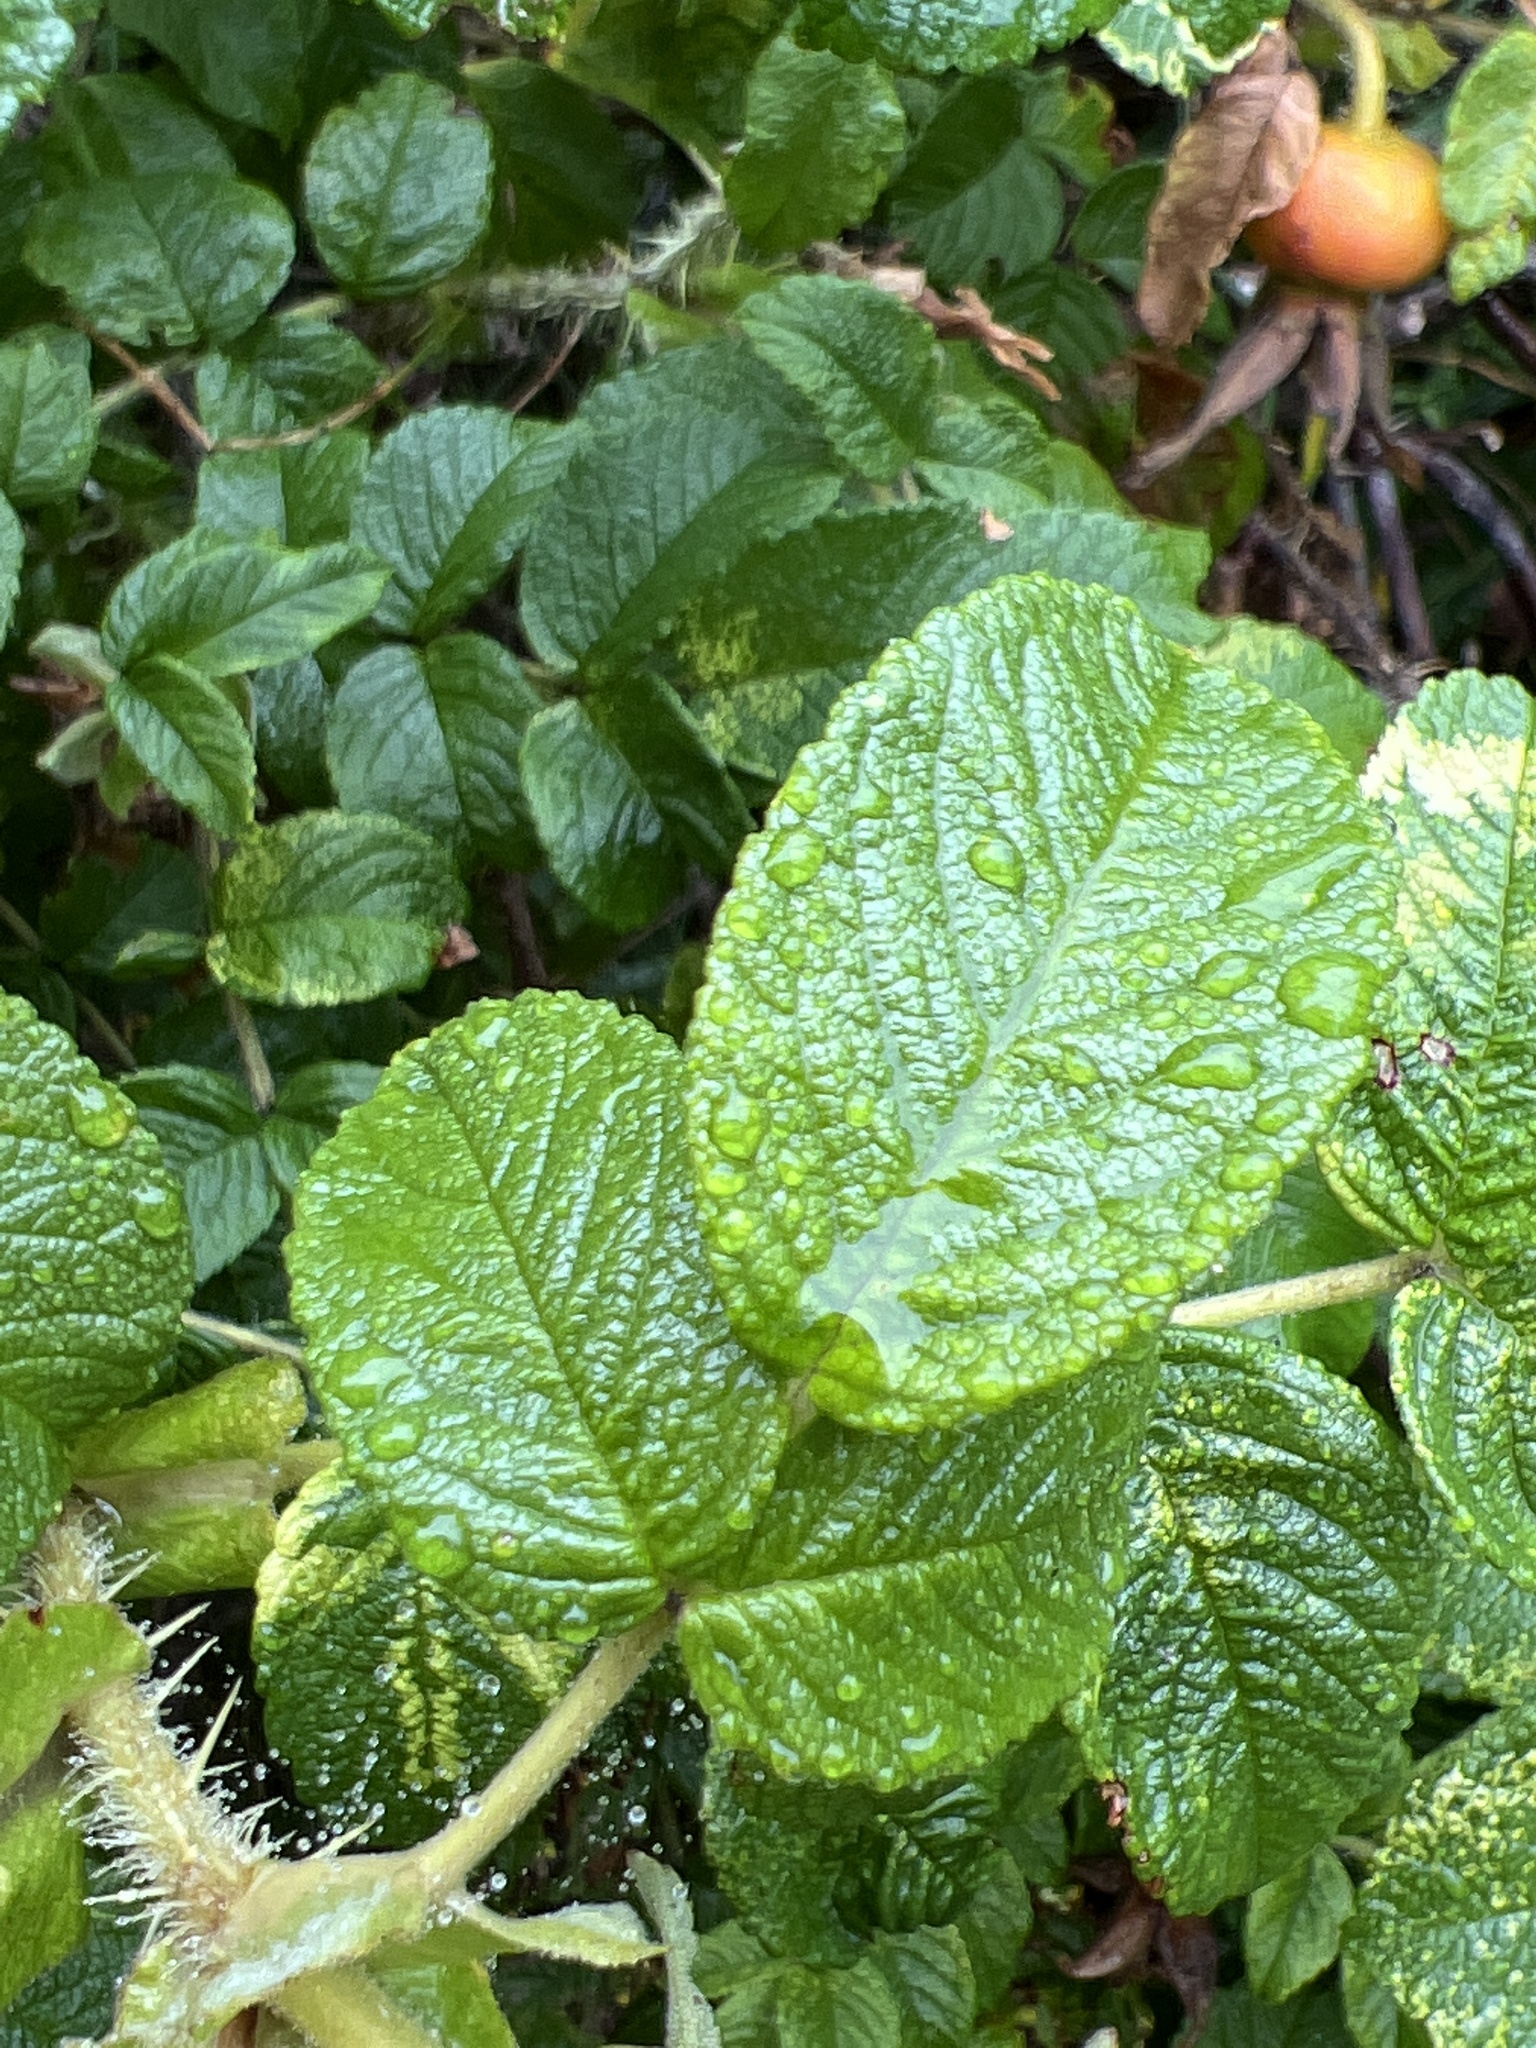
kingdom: Plantae
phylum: Tracheophyta
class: Magnoliopsida
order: Rosales
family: Rosaceae
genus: Rosa
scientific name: Rosa rugosa
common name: Japanese rose
